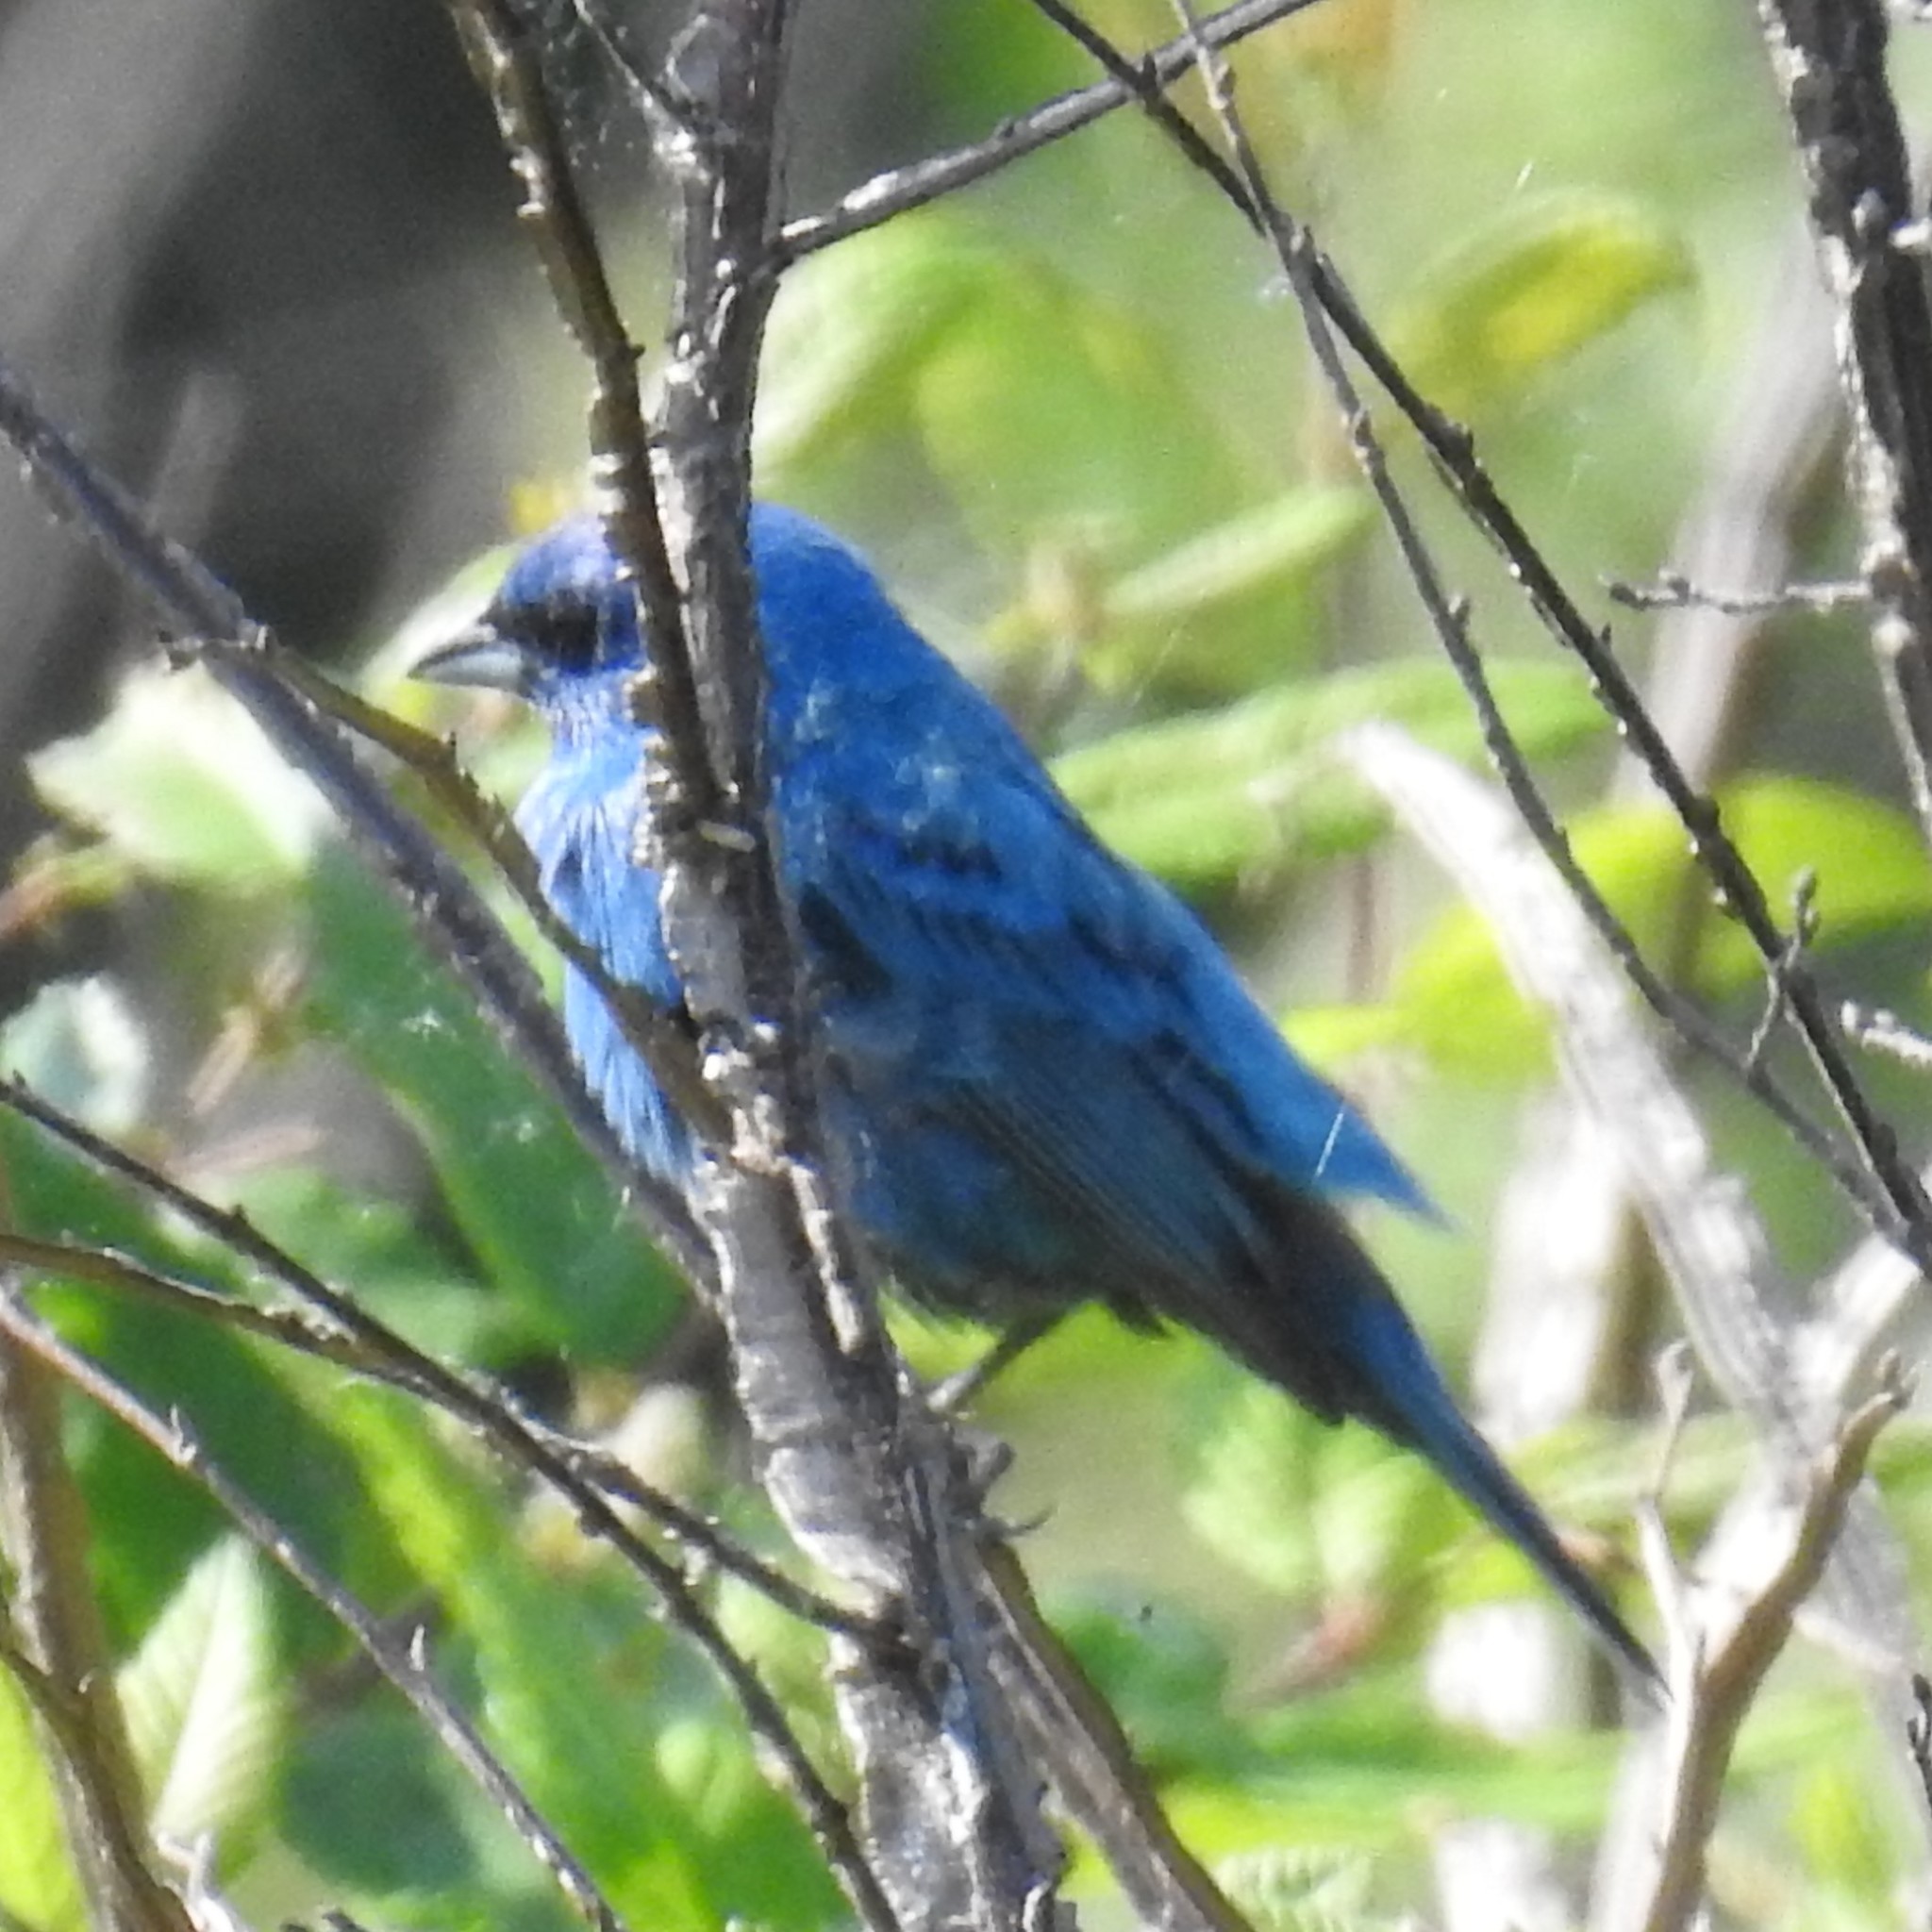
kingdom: Animalia
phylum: Chordata
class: Aves
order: Passeriformes
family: Cardinalidae
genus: Passerina
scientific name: Passerina cyanea
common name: Indigo bunting
